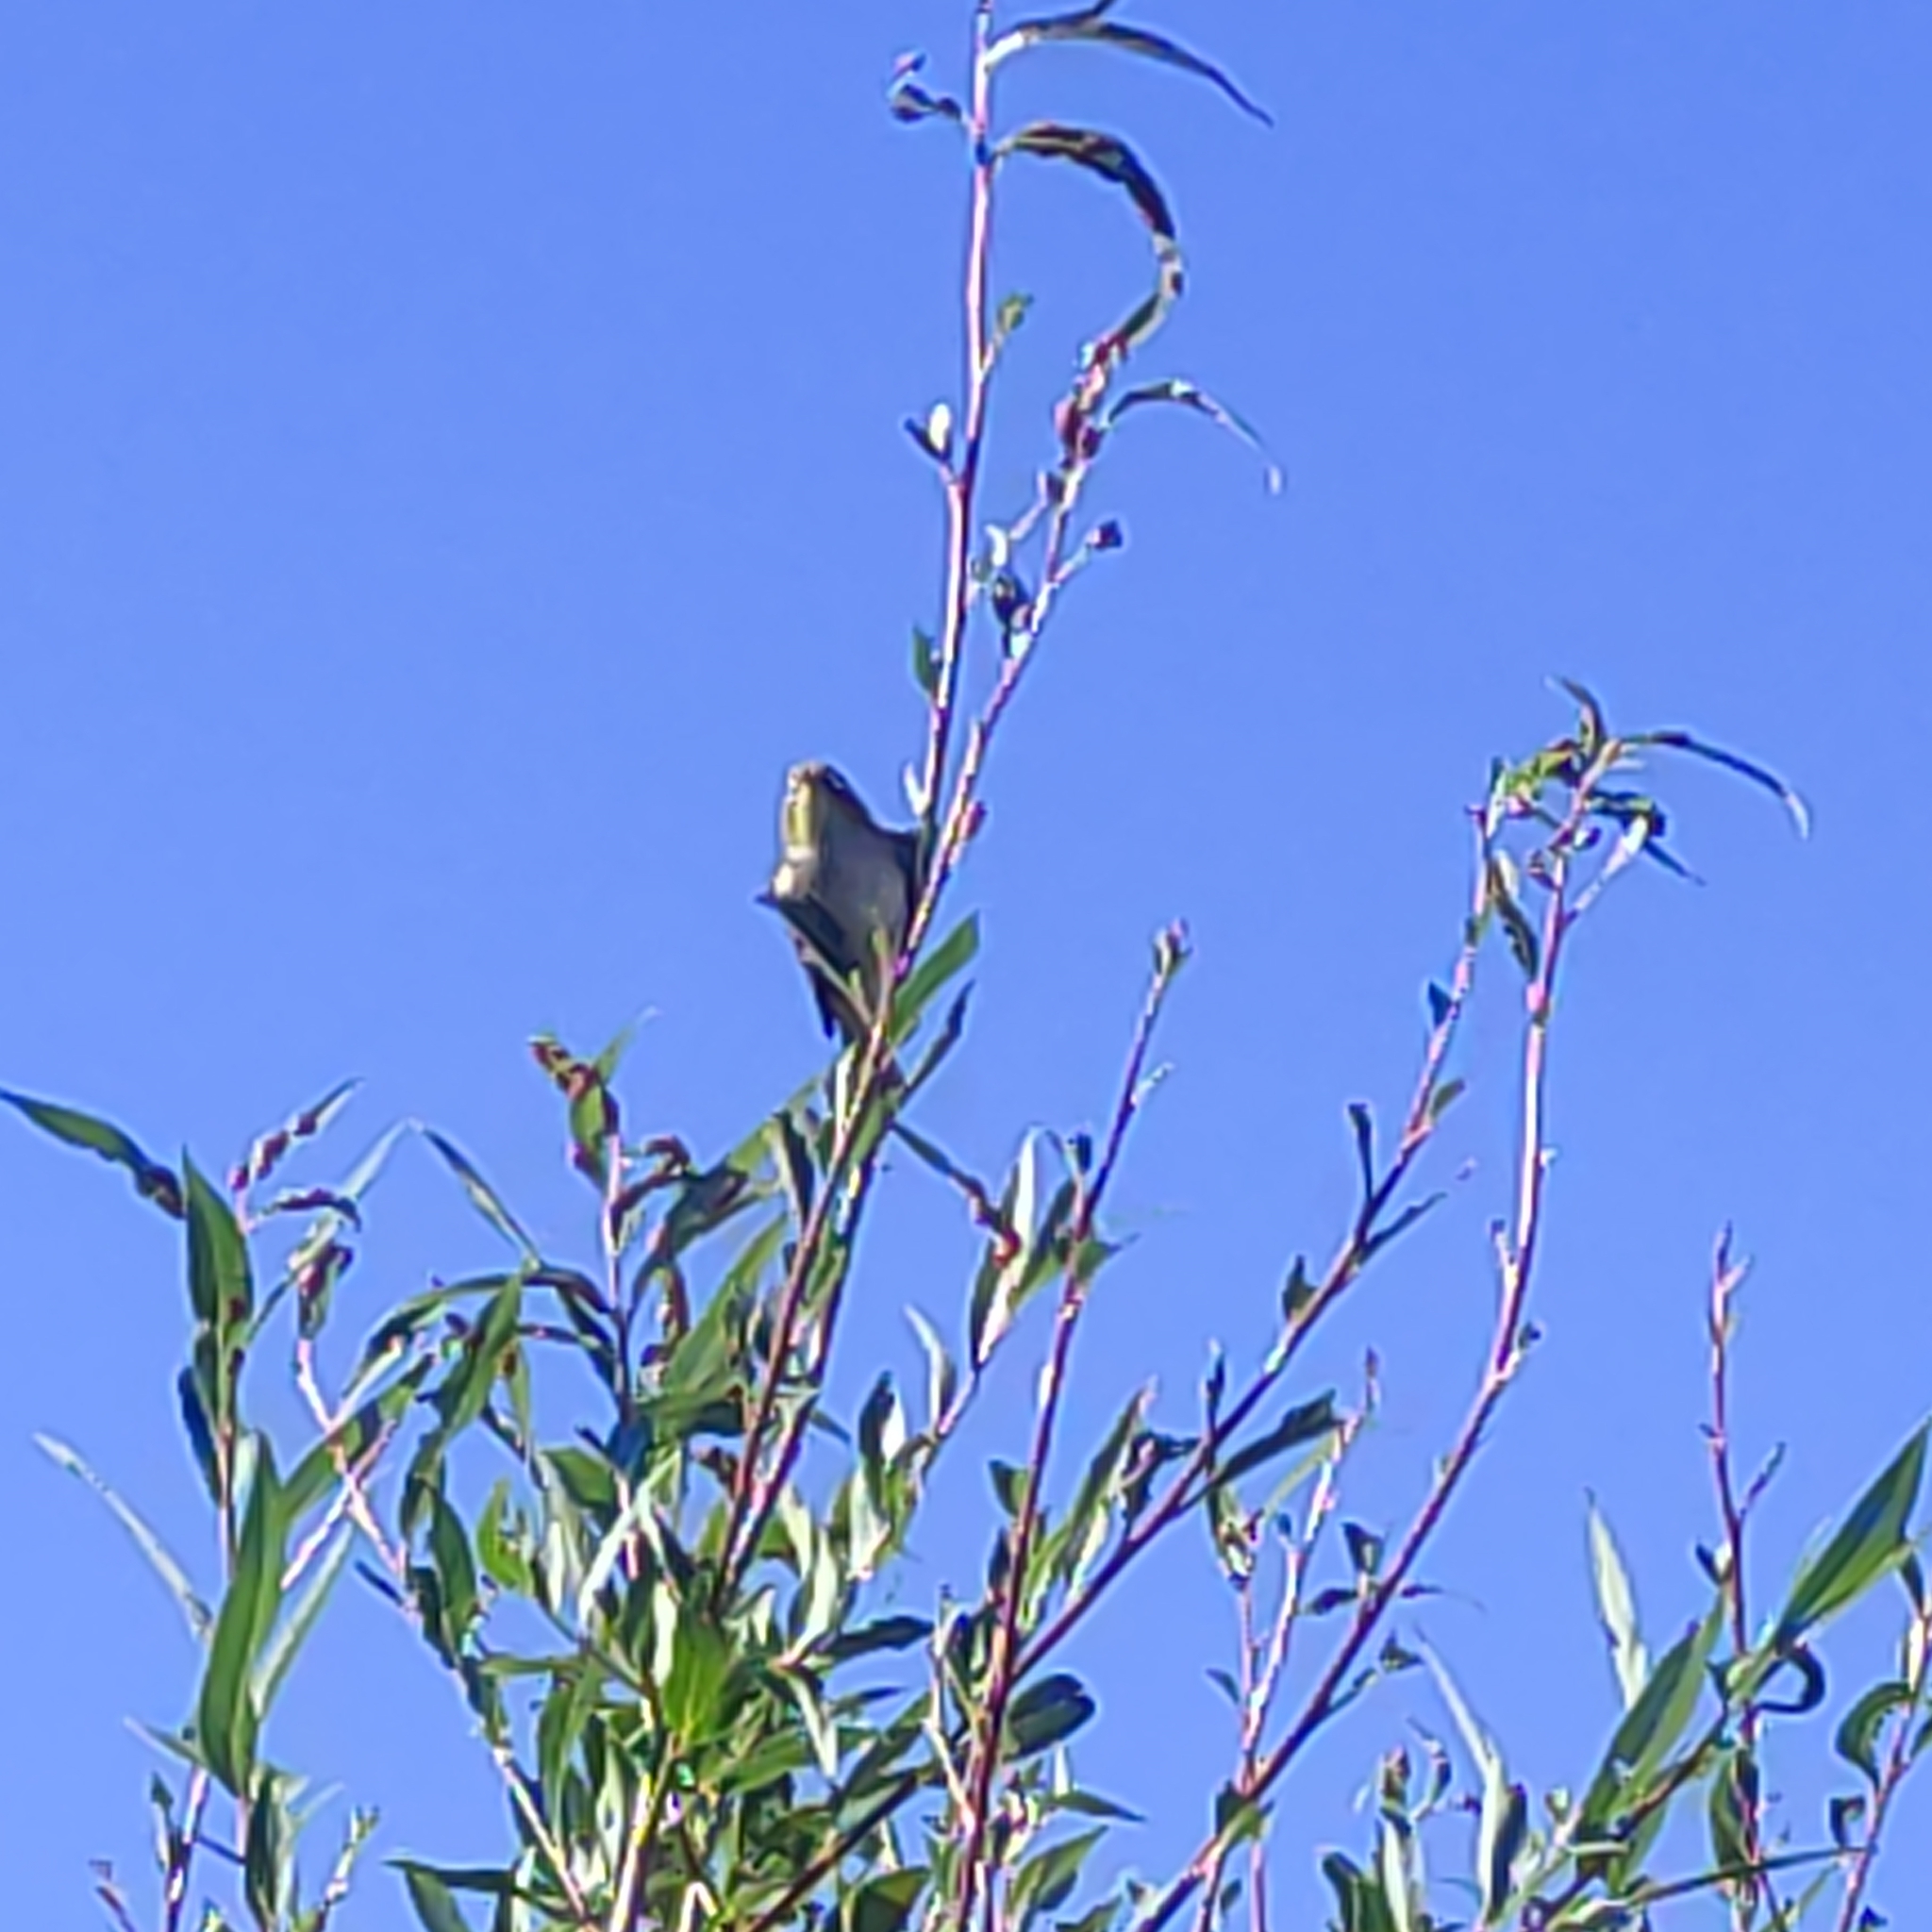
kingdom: Animalia
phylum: Chordata
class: Aves
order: Passeriformes
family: Zosteropidae
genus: Zosterops
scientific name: Zosterops lateralis
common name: Silvereye
